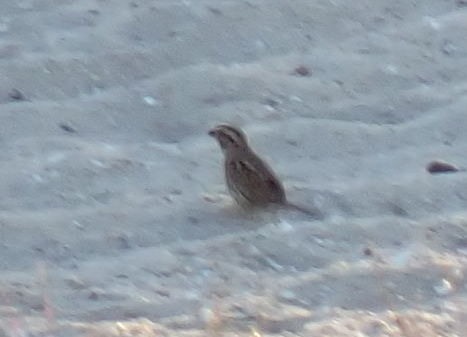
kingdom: Animalia
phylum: Chordata
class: Aves
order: Passeriformes
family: Passerellidae
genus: Melospiza
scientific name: Melospiza melodia
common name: Song sparrow
